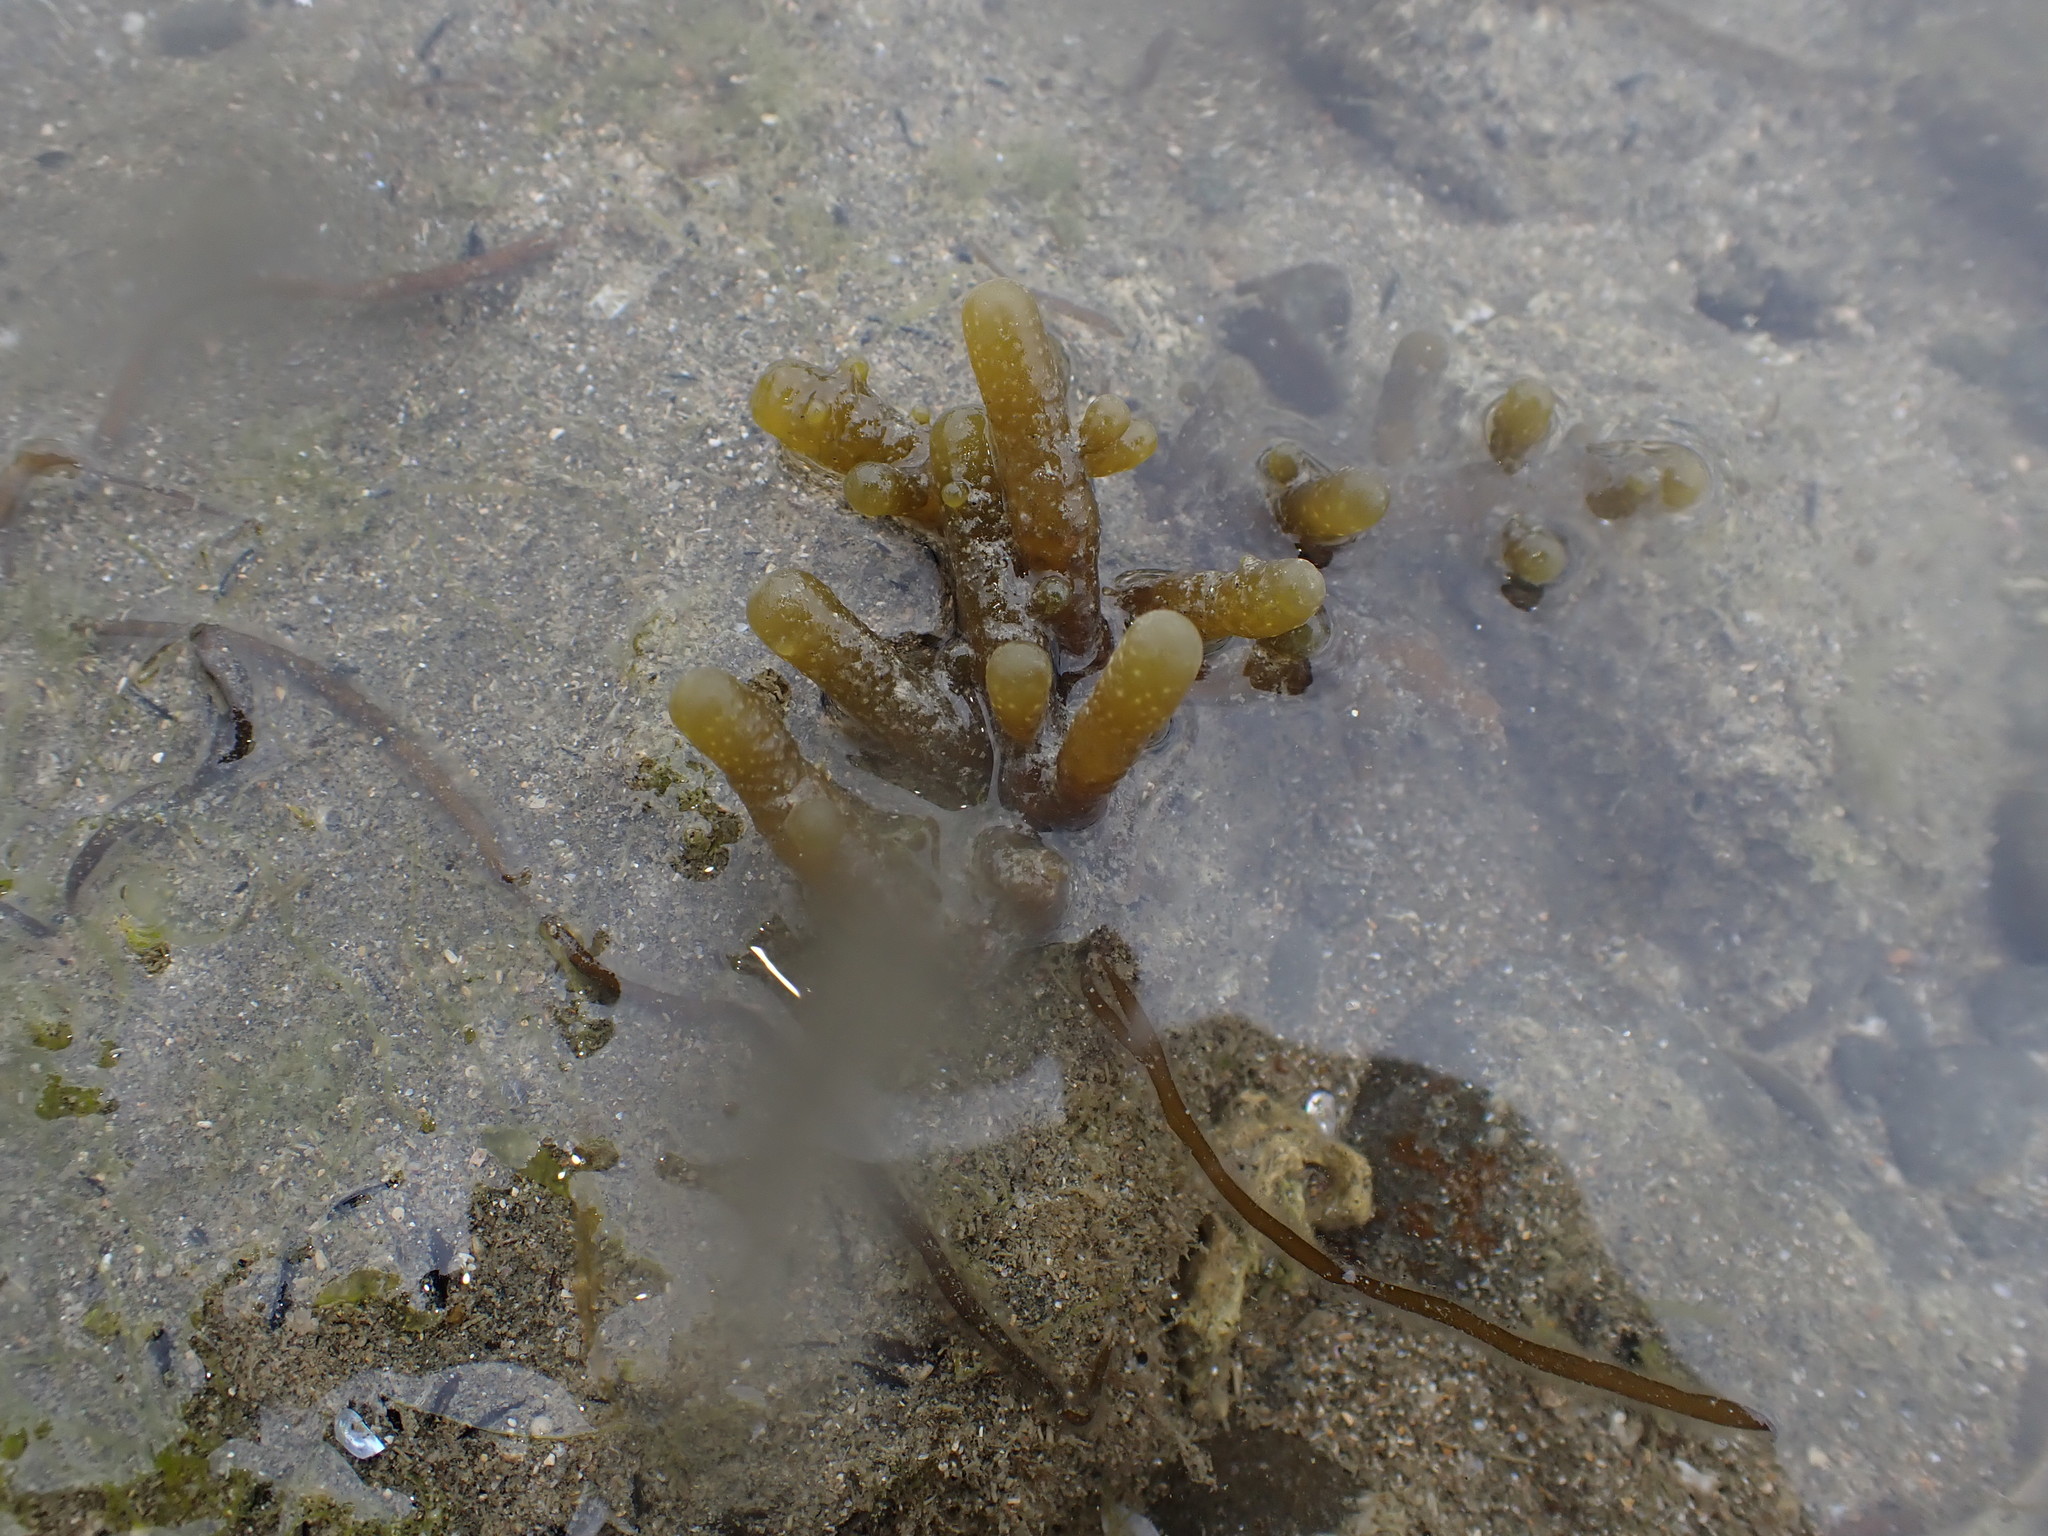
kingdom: Chromista
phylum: Ochrophyta
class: Phaeophyceae
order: Scytothamnales
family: Splachnidiaceae
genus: Splachnidium
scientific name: Splachnidium rugosum
